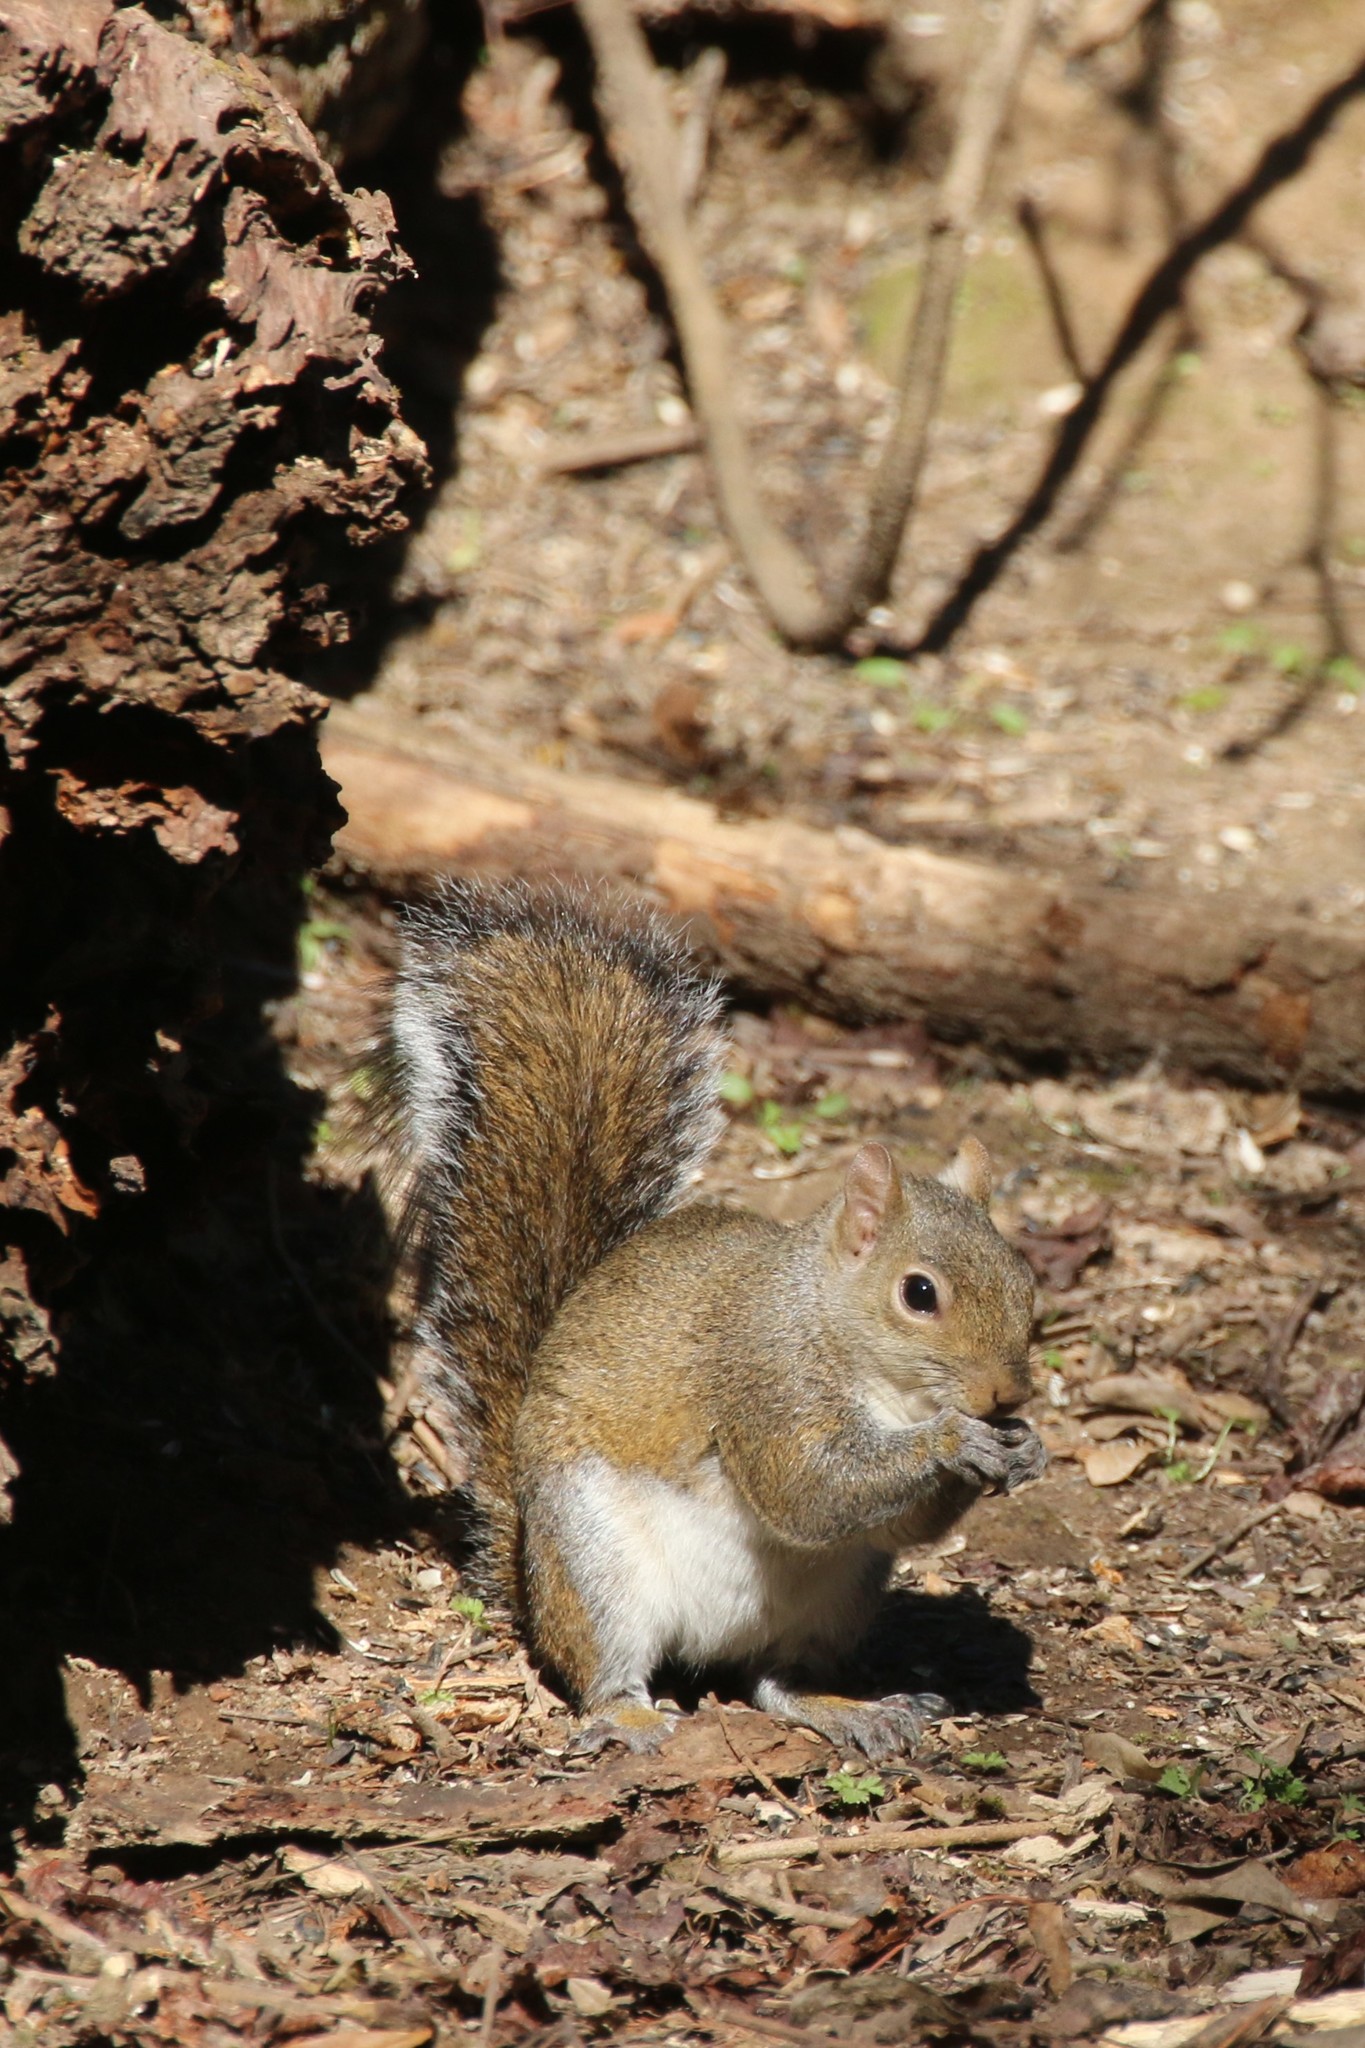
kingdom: Animalia
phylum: Chordata
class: Mammalia
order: Rodentia
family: Sciuridae
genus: Sciurus
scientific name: Sciurus carolinensis
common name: Eastern gray squirrel
